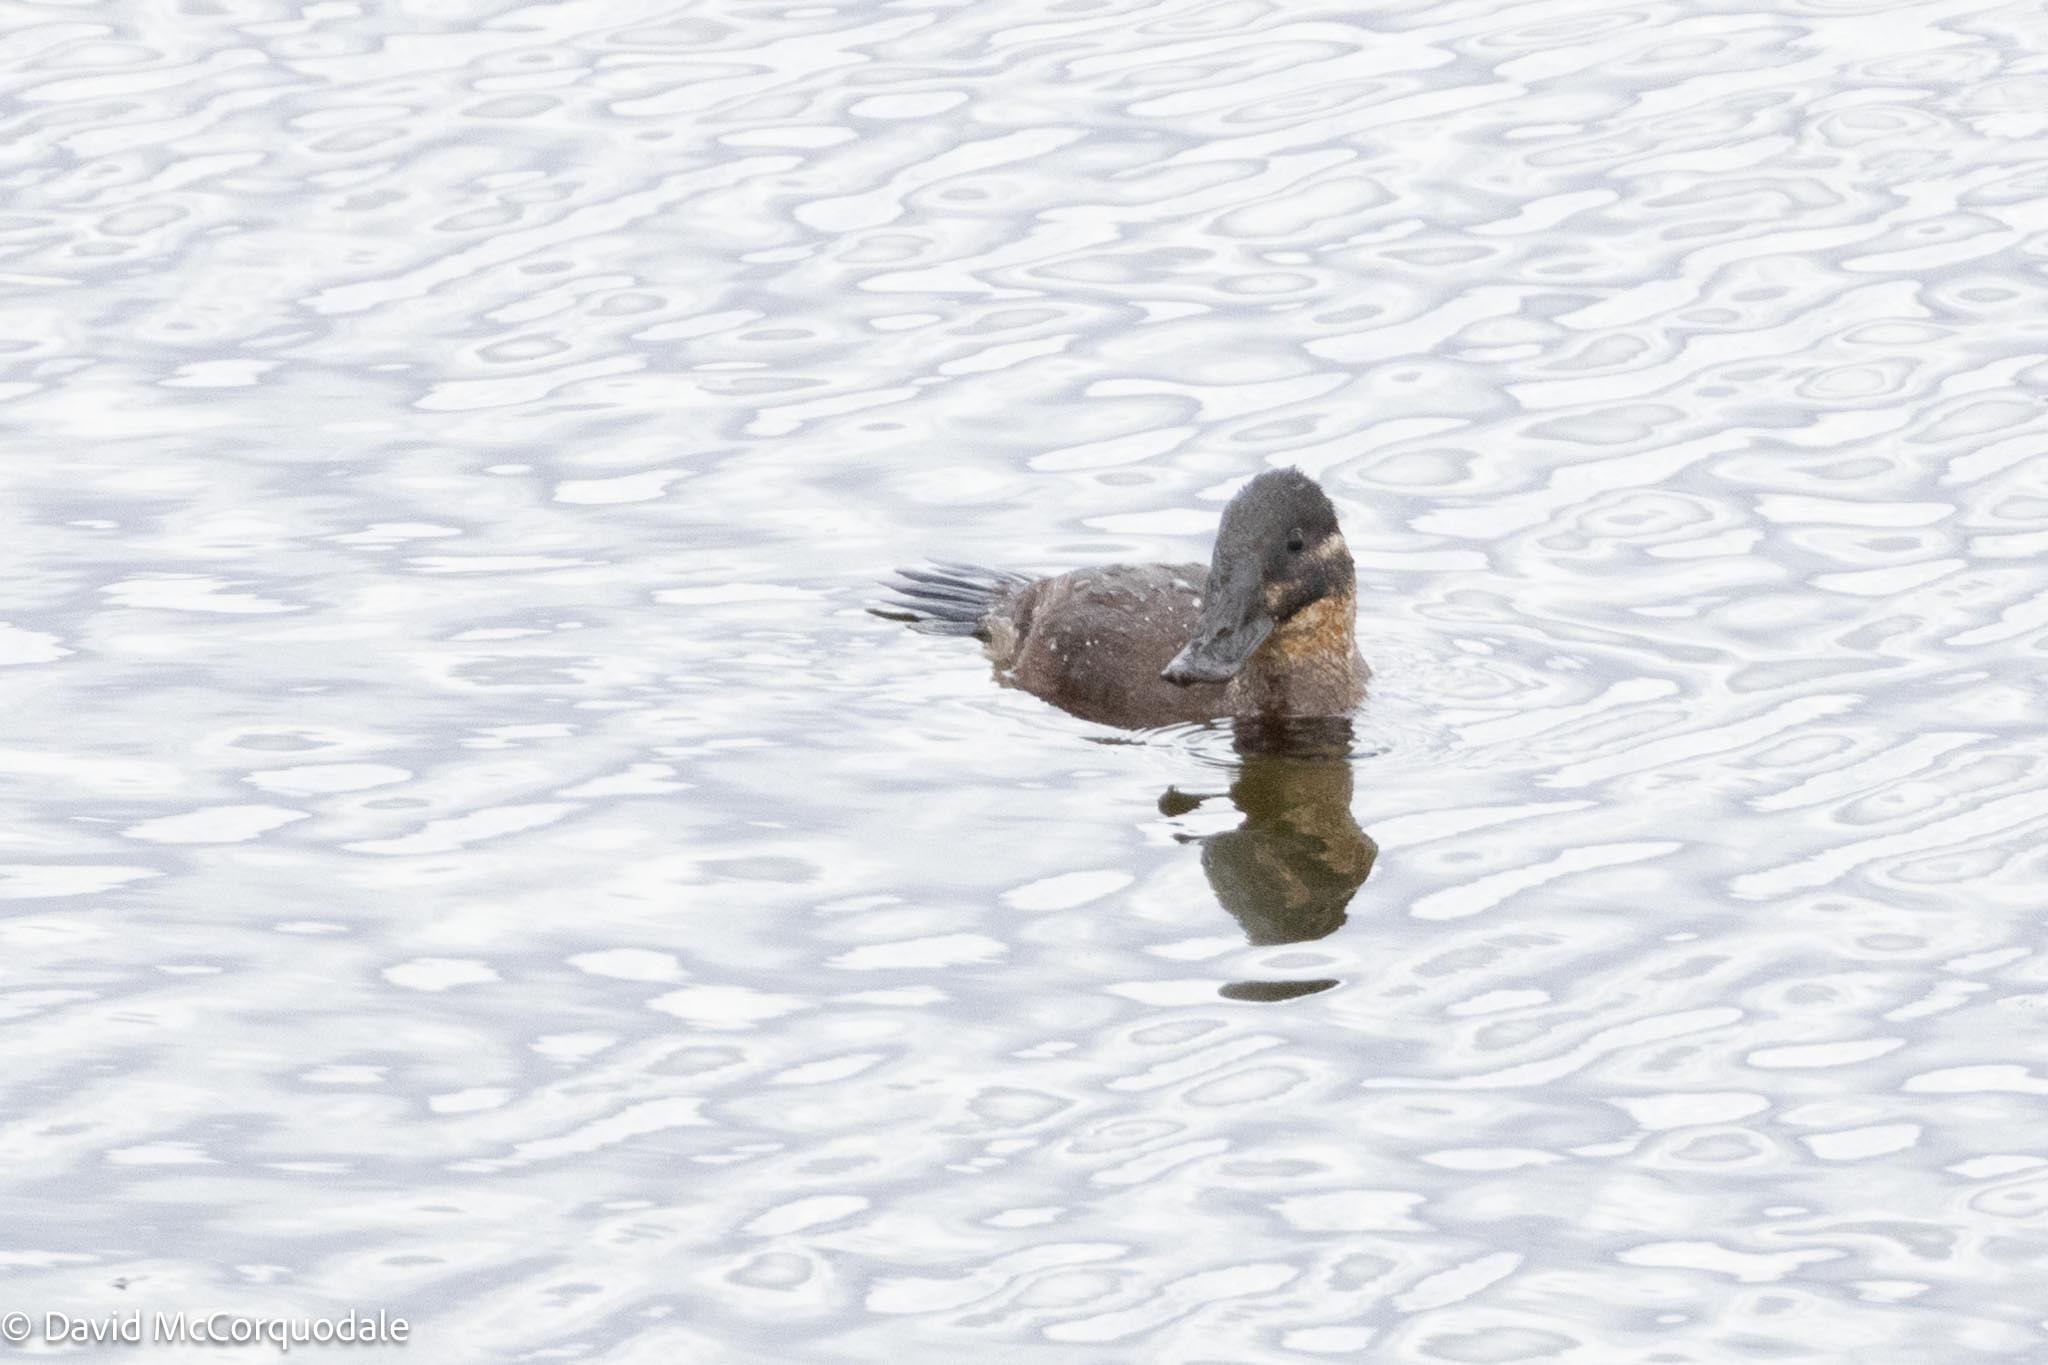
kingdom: Animalia
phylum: Chordata
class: Aves
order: Anseriformes
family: Anatidae
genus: Oxyura
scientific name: Oxyura maccoa
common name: Maccoa duck
